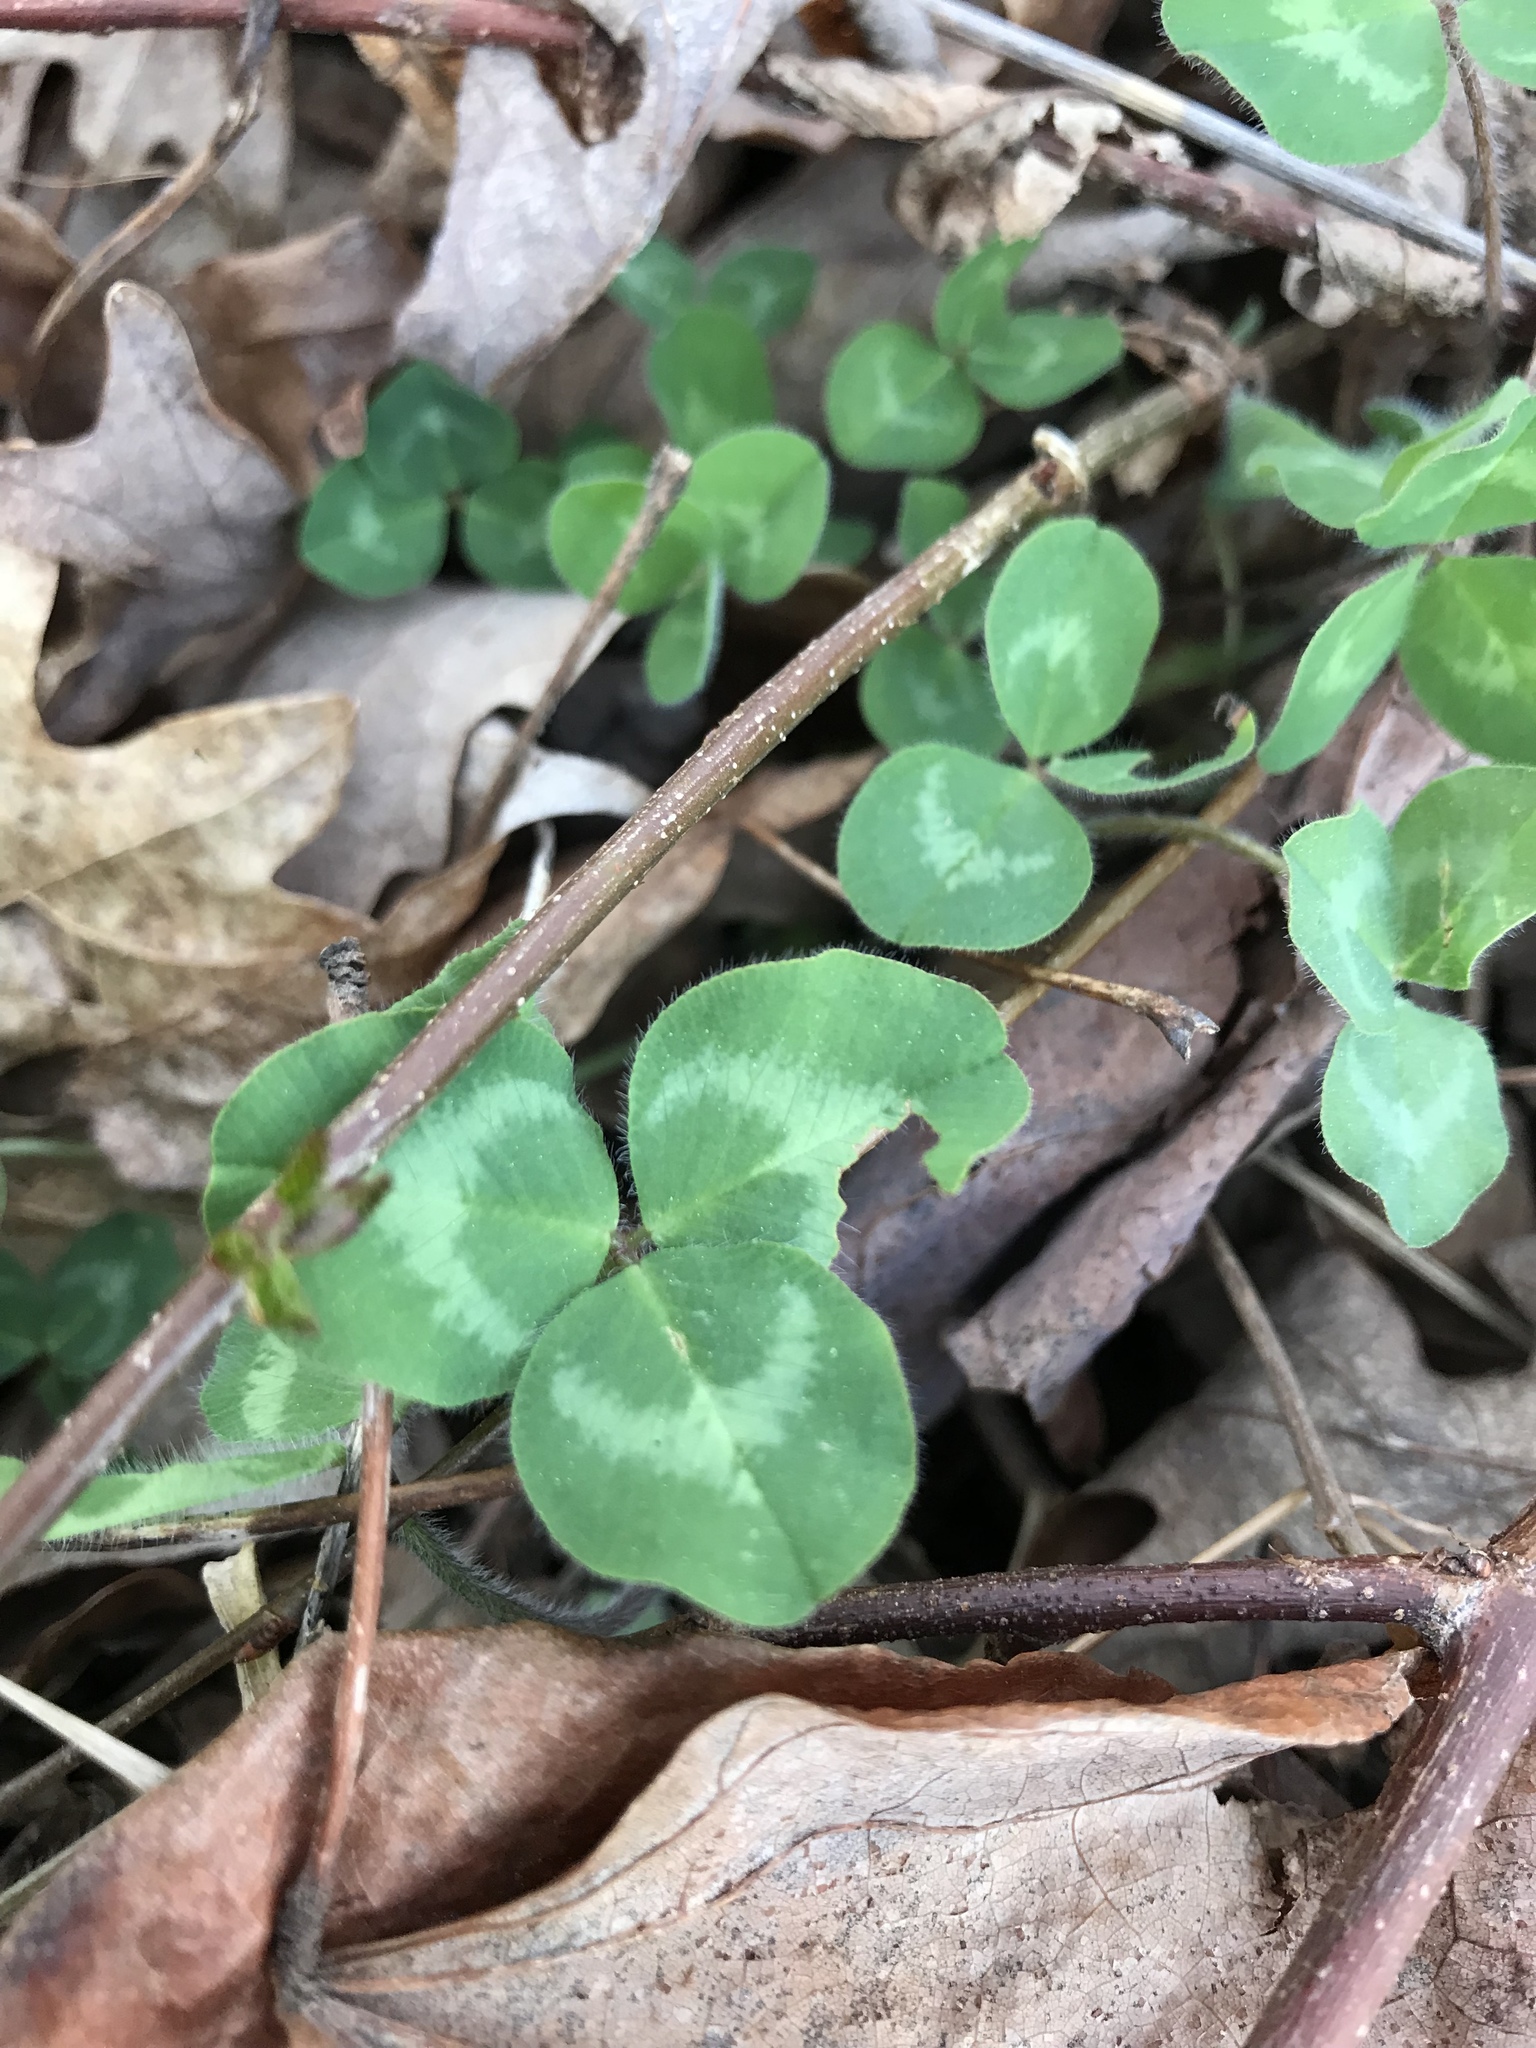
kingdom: Plantae
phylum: Tracheophyta
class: Magnoliopsida
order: Fabales
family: Fabaceae
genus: Trifolium
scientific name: Trifolium repens
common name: White clover
